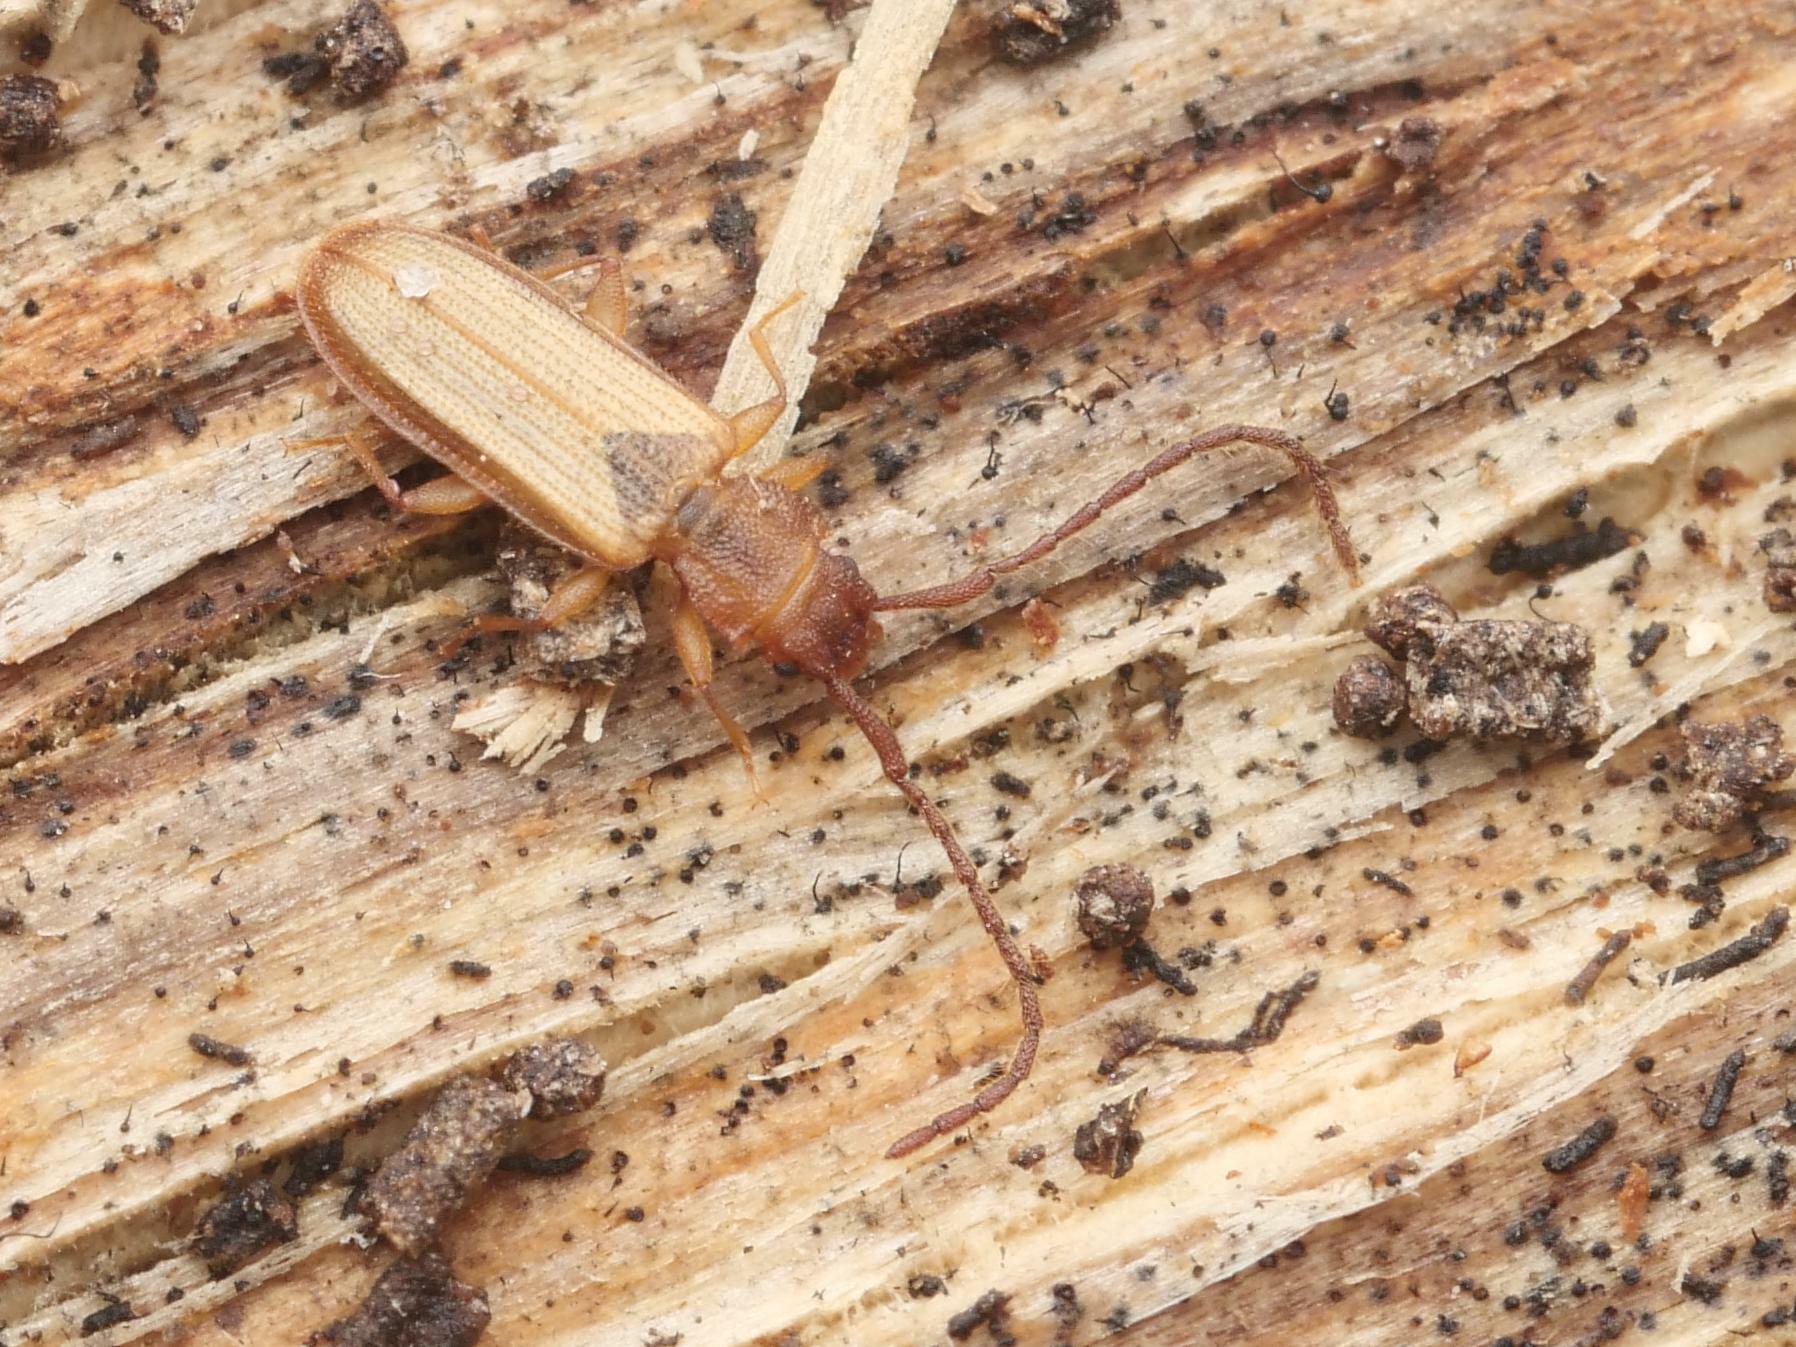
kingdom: Animalia
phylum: Arthropoda
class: Insecta
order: Coleoptera
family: Silvanidae
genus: Uleiota
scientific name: Uleiota planatus
